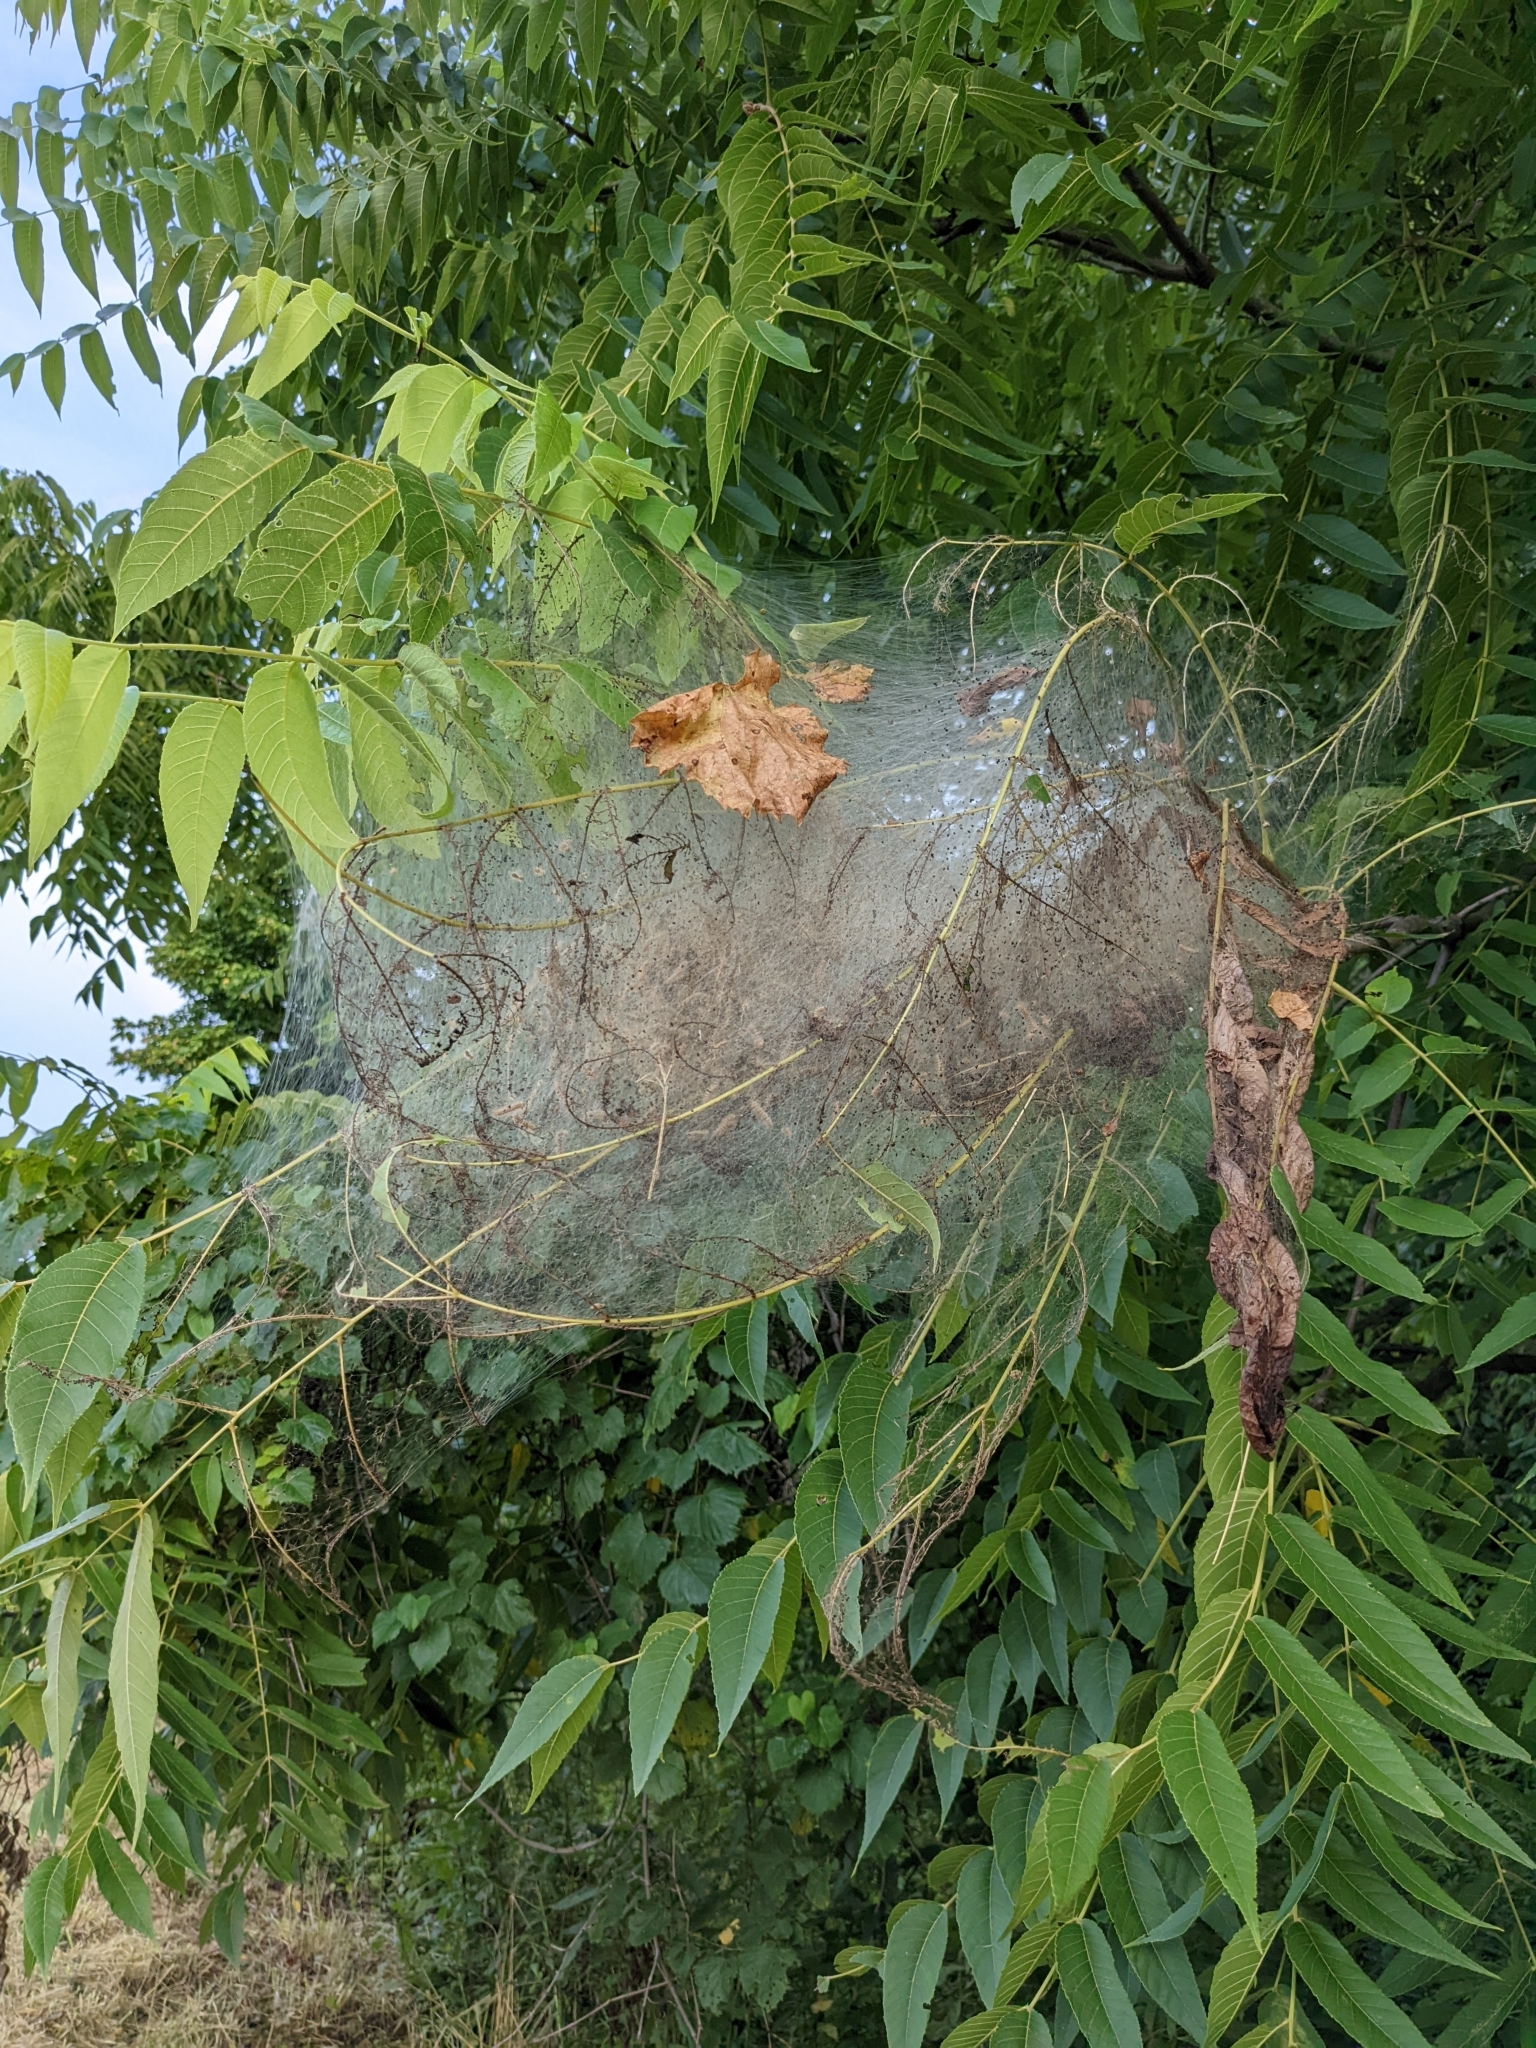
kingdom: Animalia
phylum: Arthropoda
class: Insecta
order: Lepidoptera
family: Erebidae
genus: Hyphantria
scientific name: Hyphantria cunea
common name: American white moth
